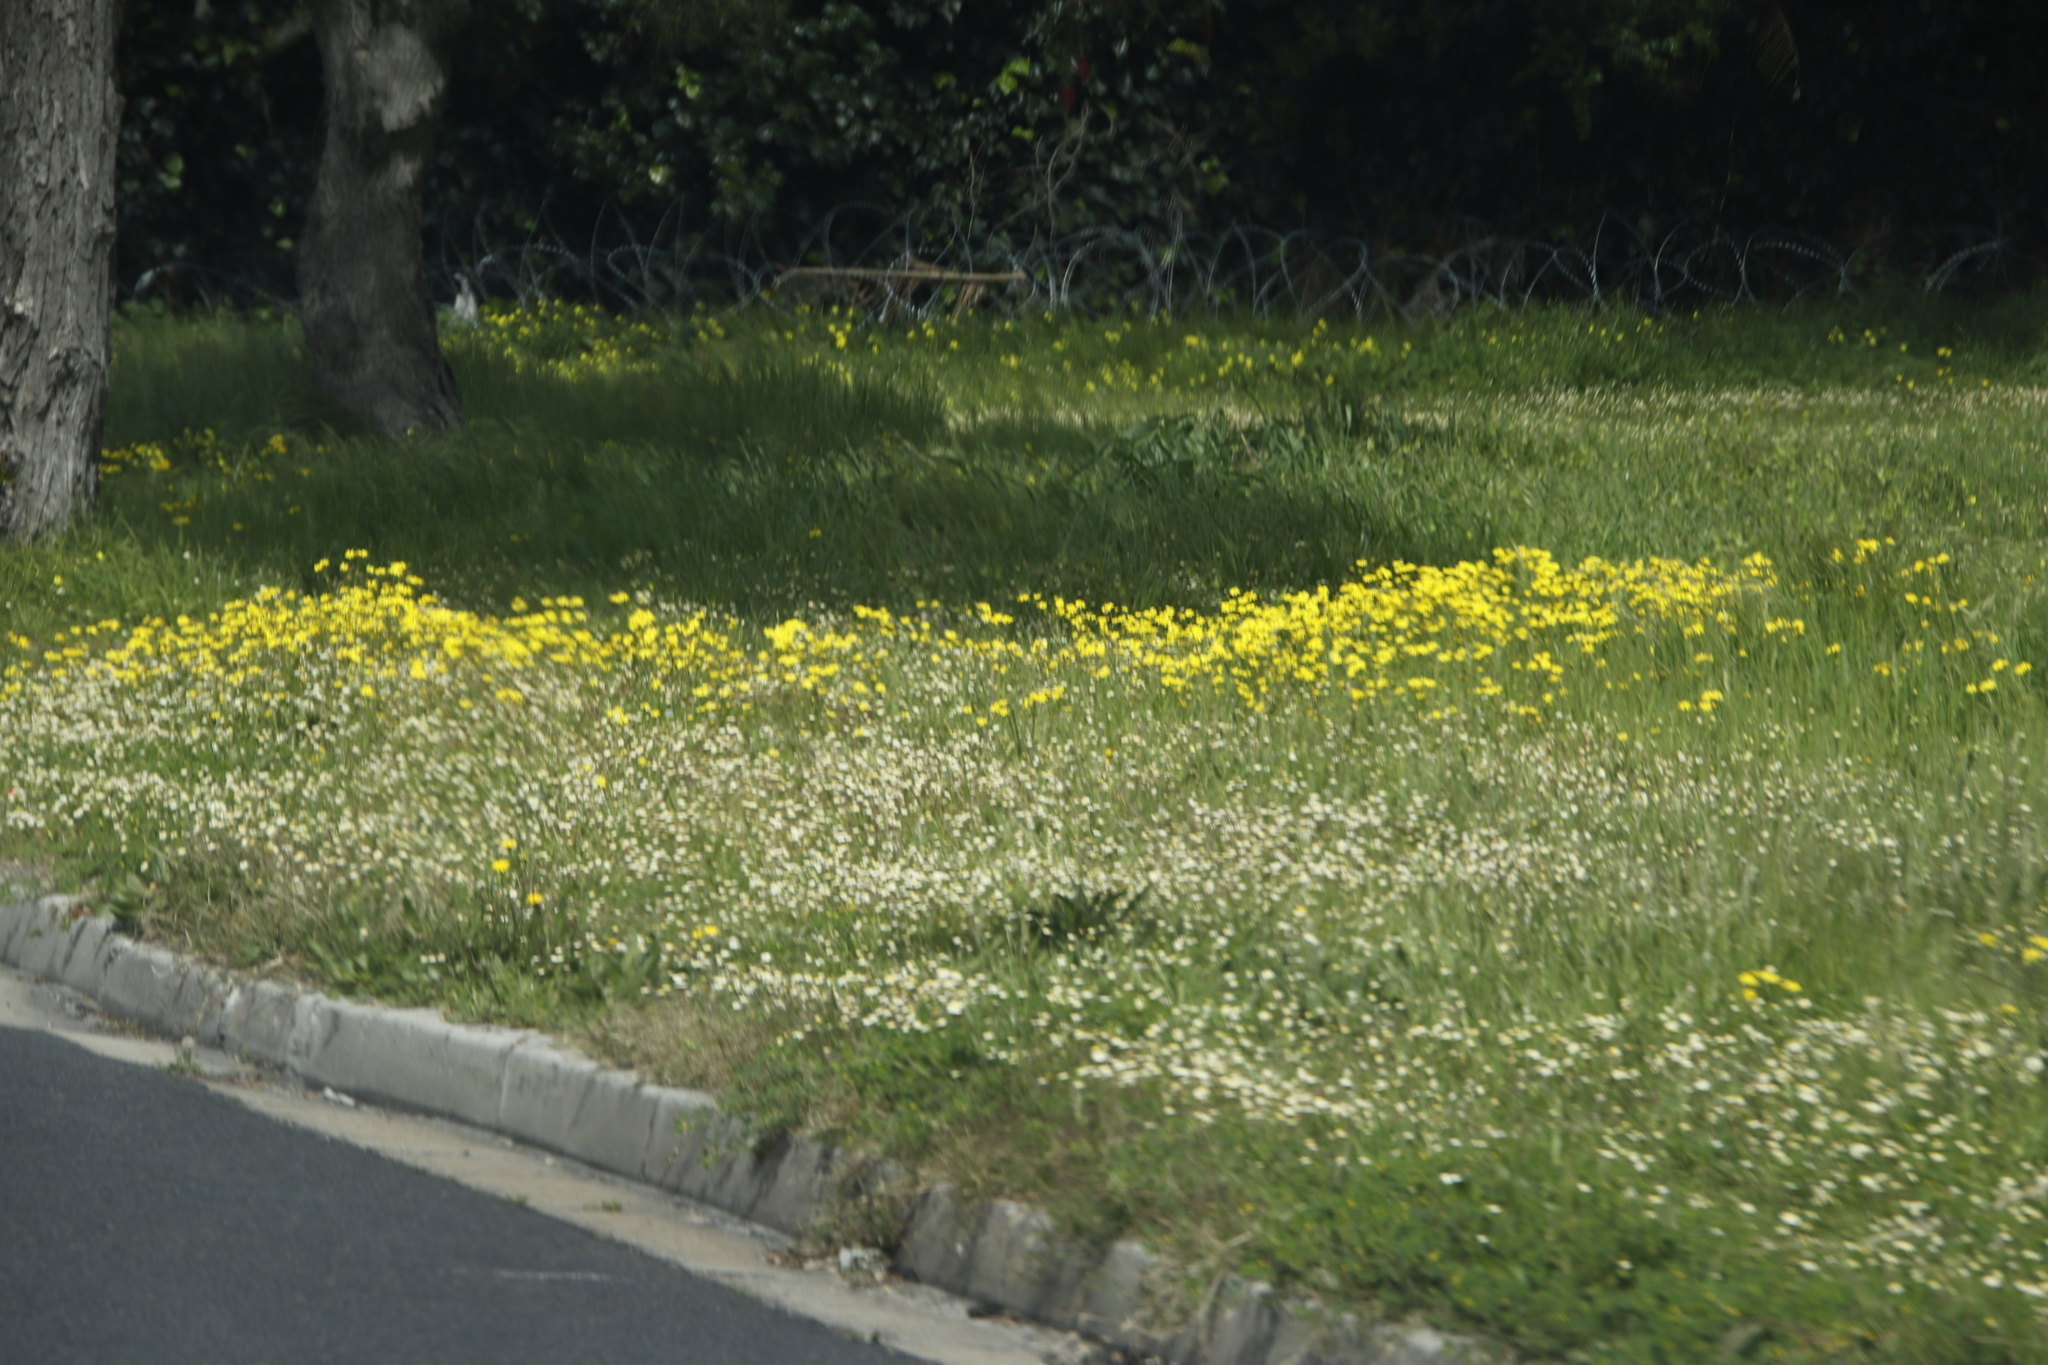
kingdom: Plantae
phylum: Tracheophyta
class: Magnoliopsida
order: Oxalidales
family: Oxalidaceae
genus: Oxalis
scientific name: Oxalis pes-caprae
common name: Bermuda-buttercup
